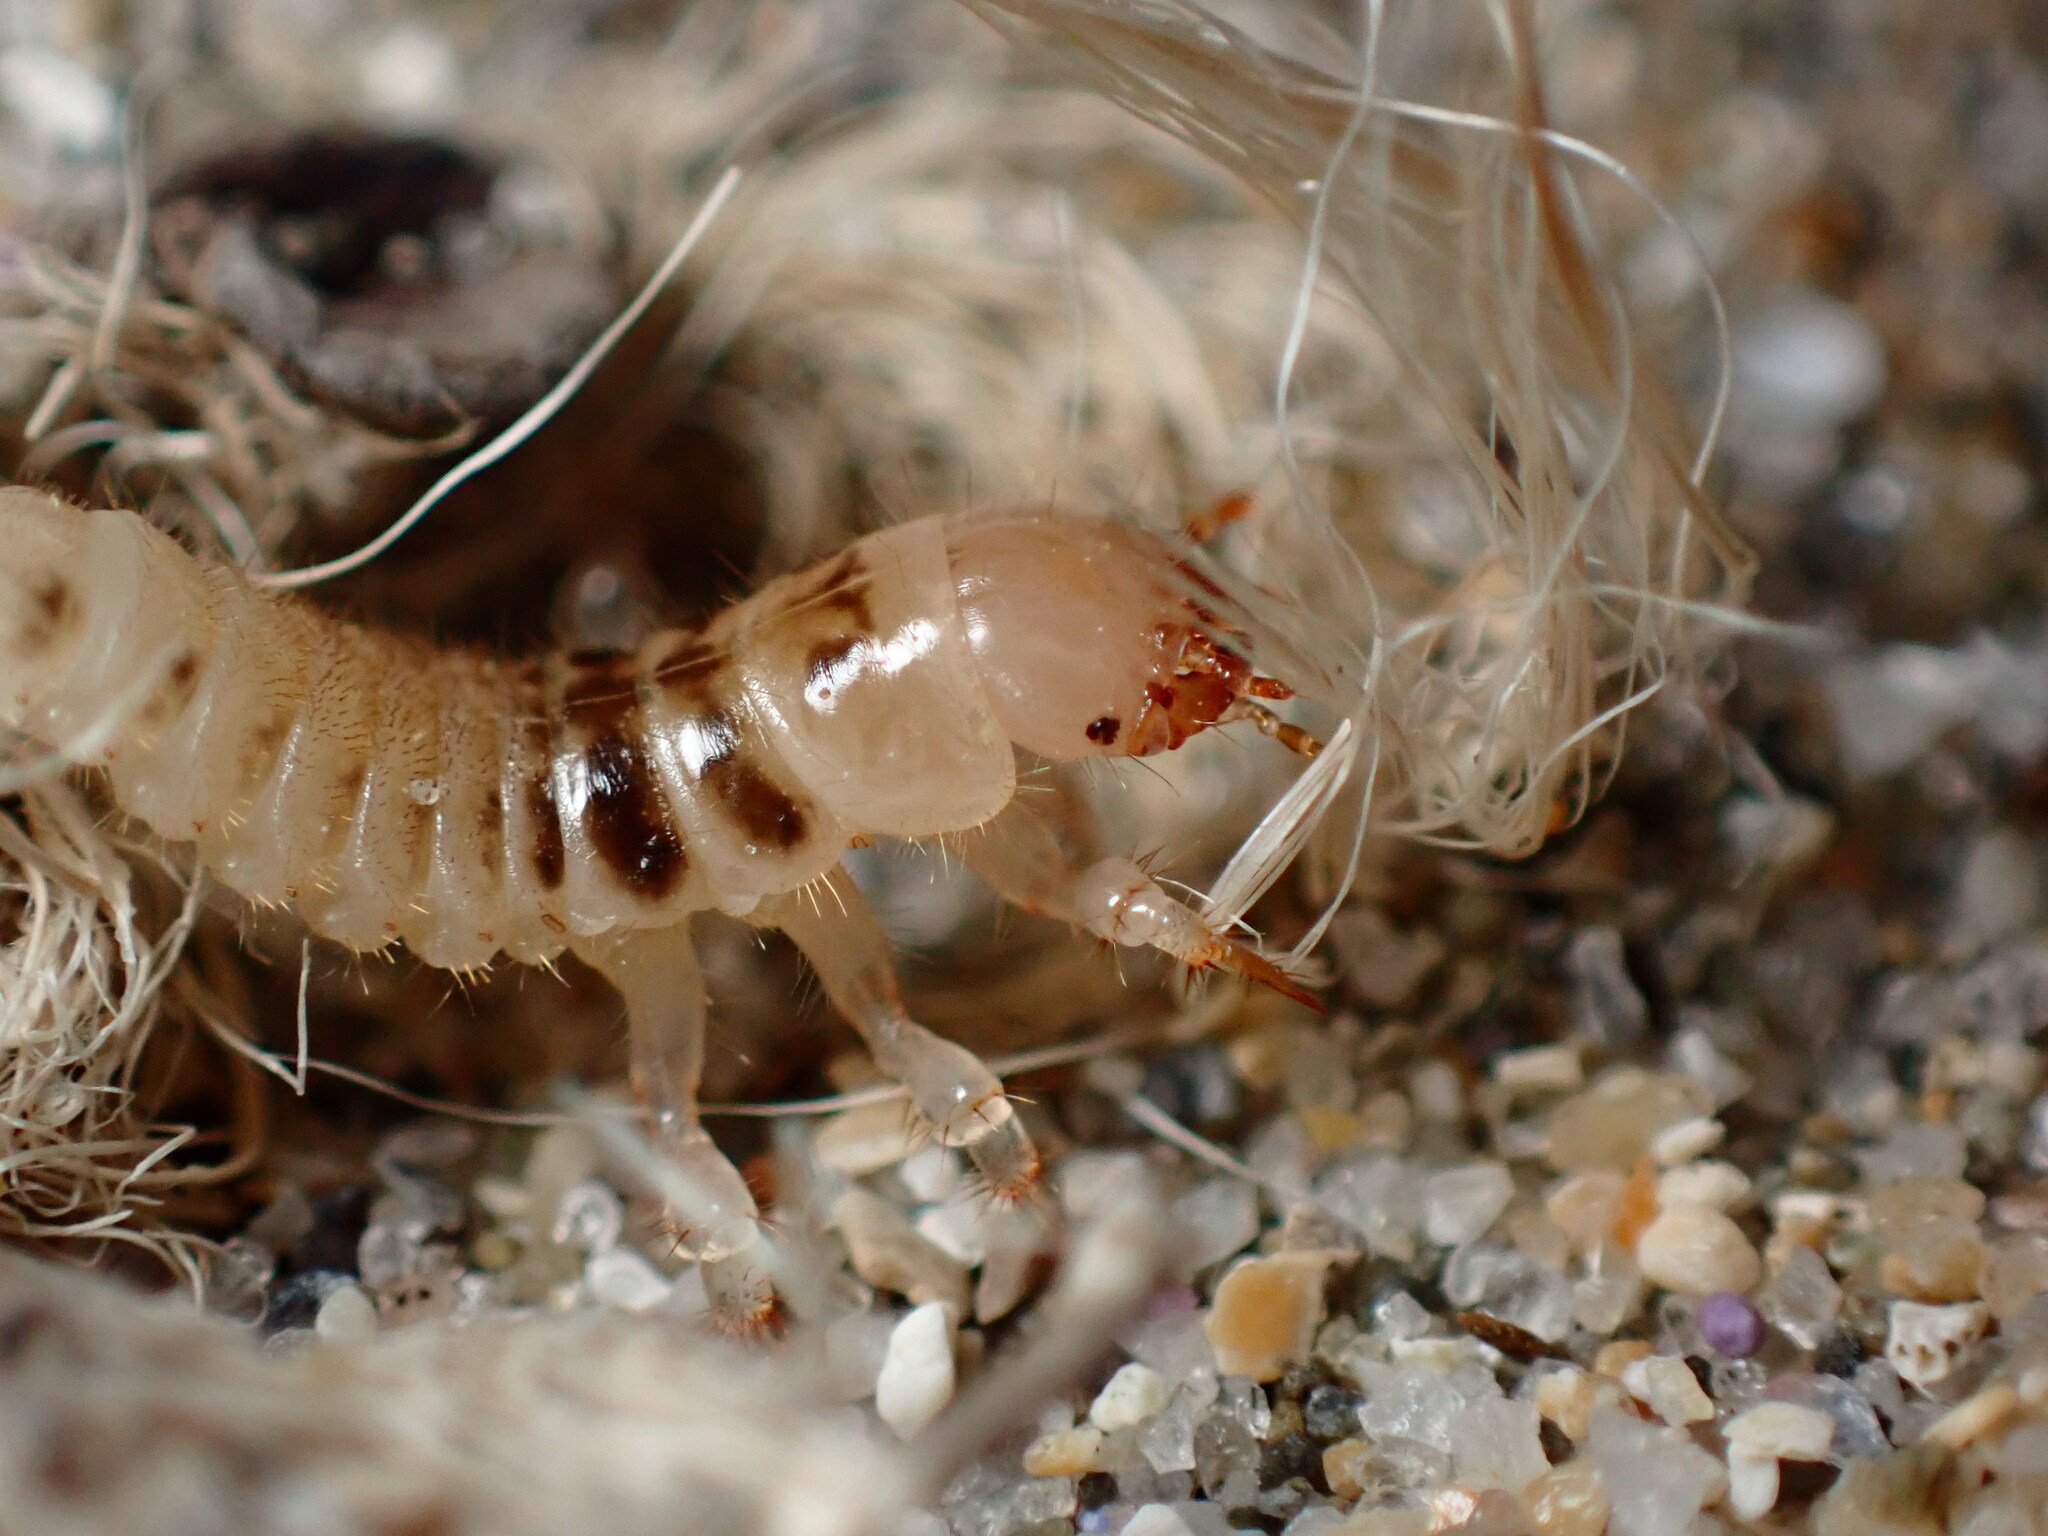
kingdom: Animalia
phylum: Arthropoda
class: Insecta
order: Coleoptera
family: Staphylinidae
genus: Thinopinus
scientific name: Thinopinus pictus
